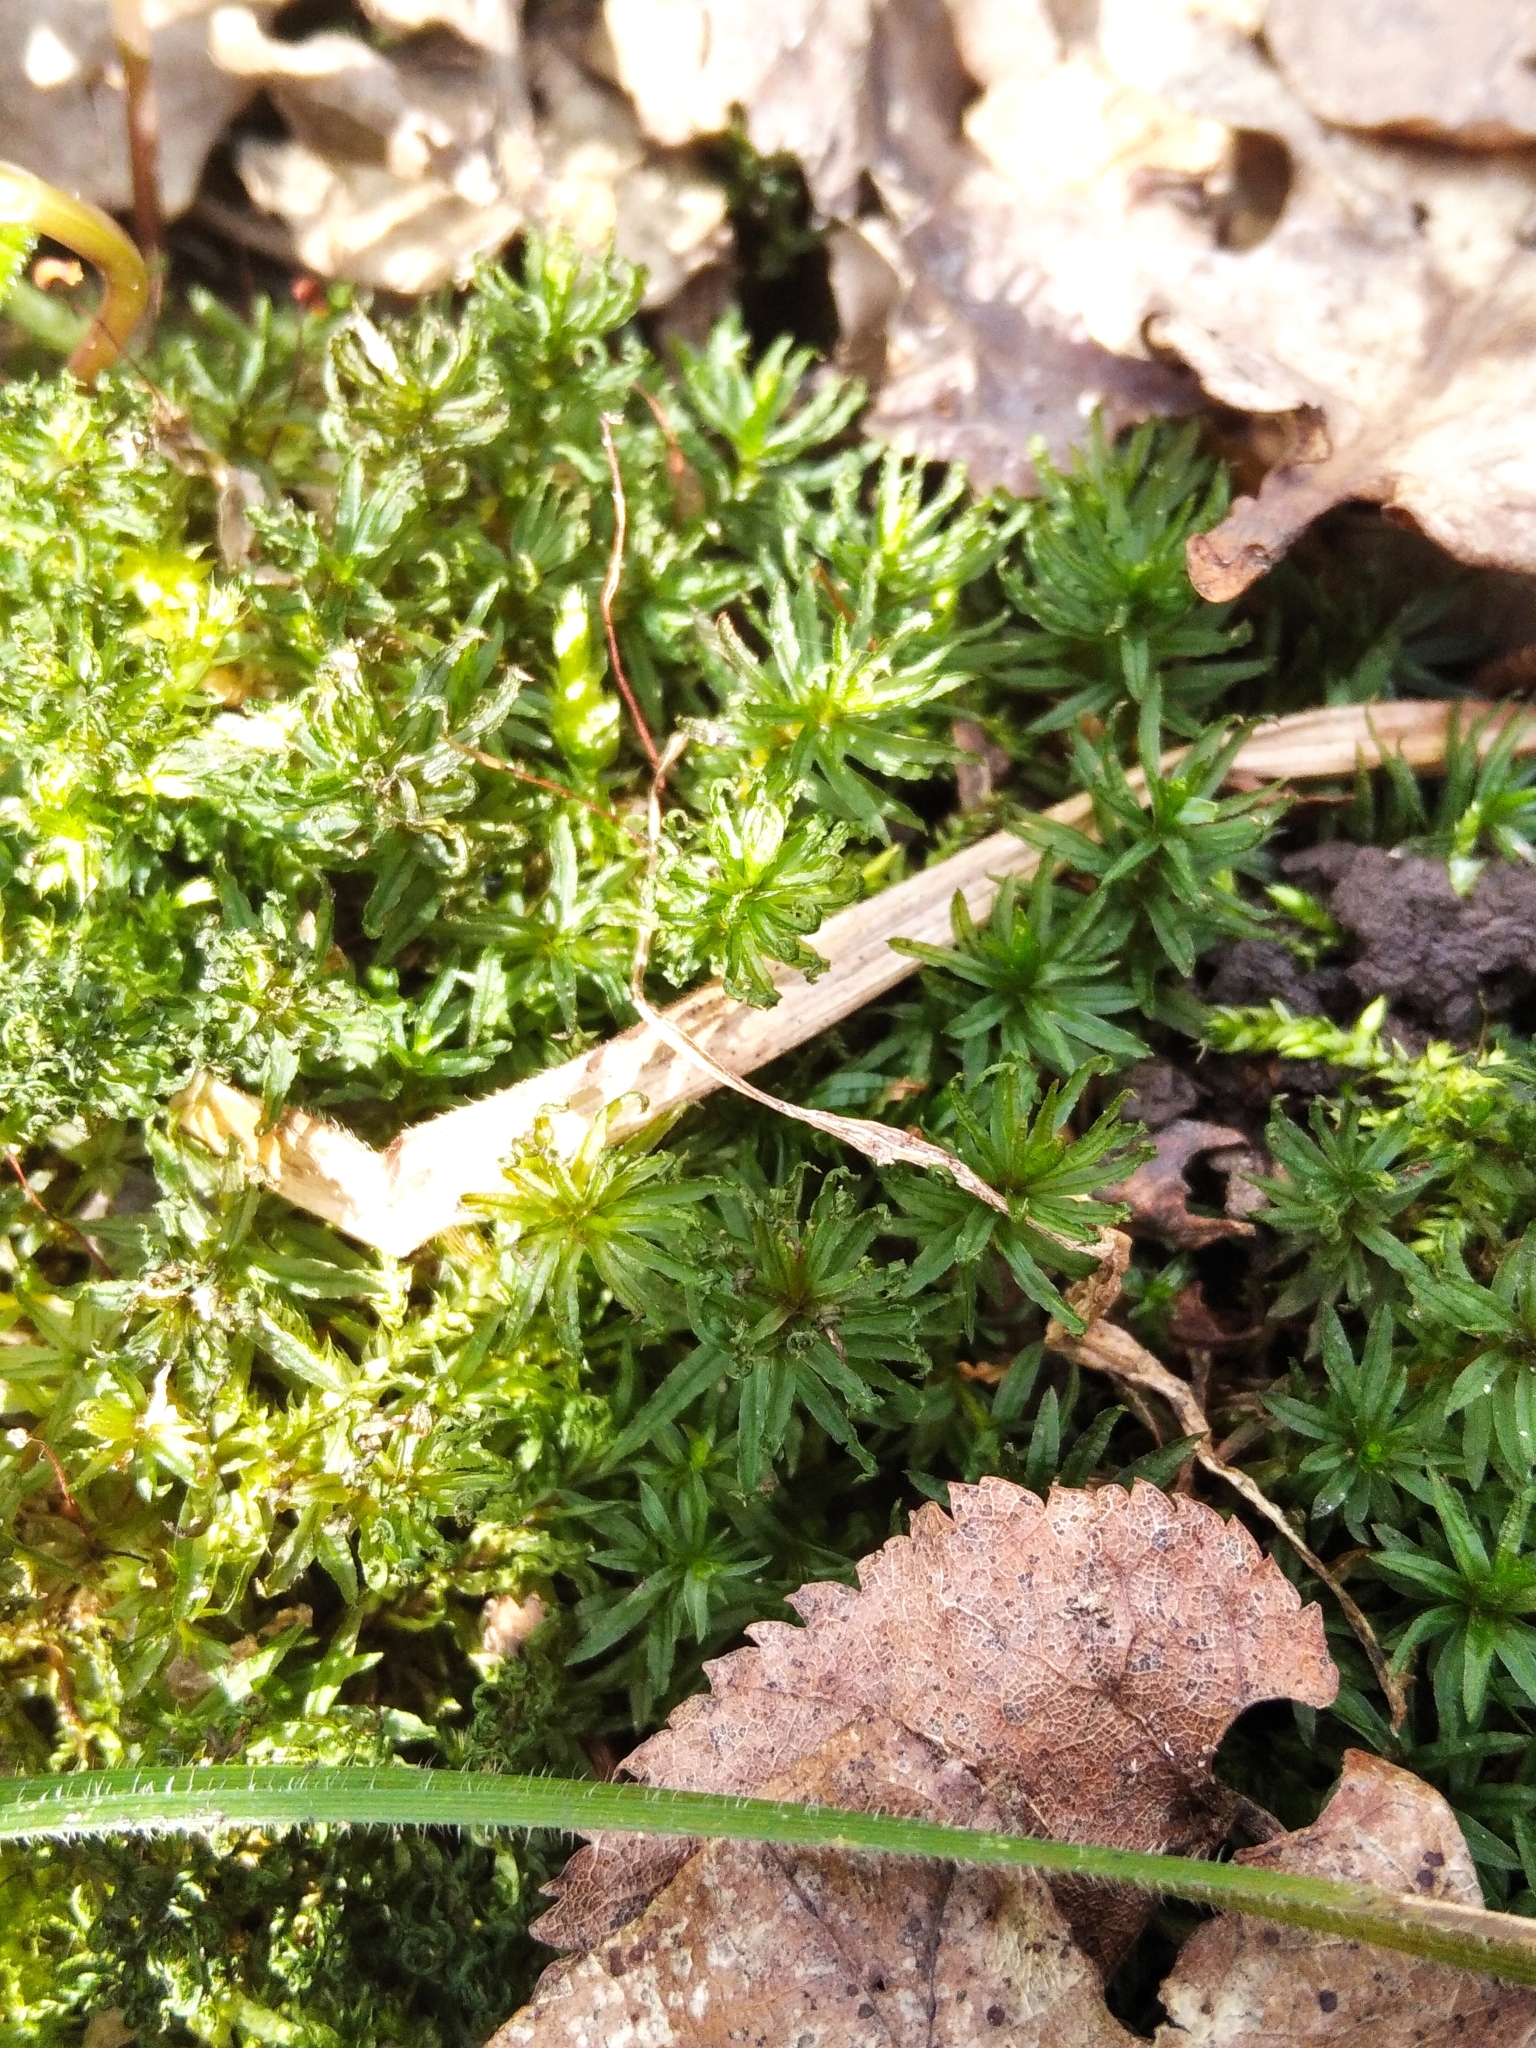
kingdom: Plantae
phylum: Bryophyta
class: Polytrichopsida
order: Polytrichales
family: Polytrichaceae
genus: Atrichum
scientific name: Atrichum undulatum
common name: Common smoothcap
